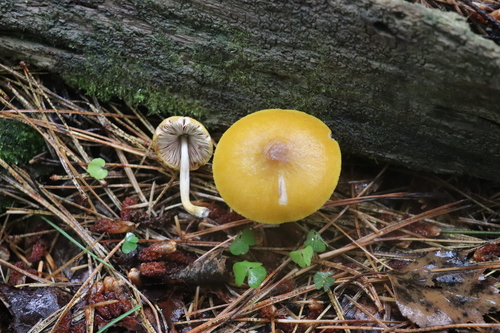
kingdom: Fungi
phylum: Basidiomycota
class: Agaricomycetes
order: Agaricales
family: Pluteaceae
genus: Pluteus
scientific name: Pluteus leoninus
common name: Lion shield
